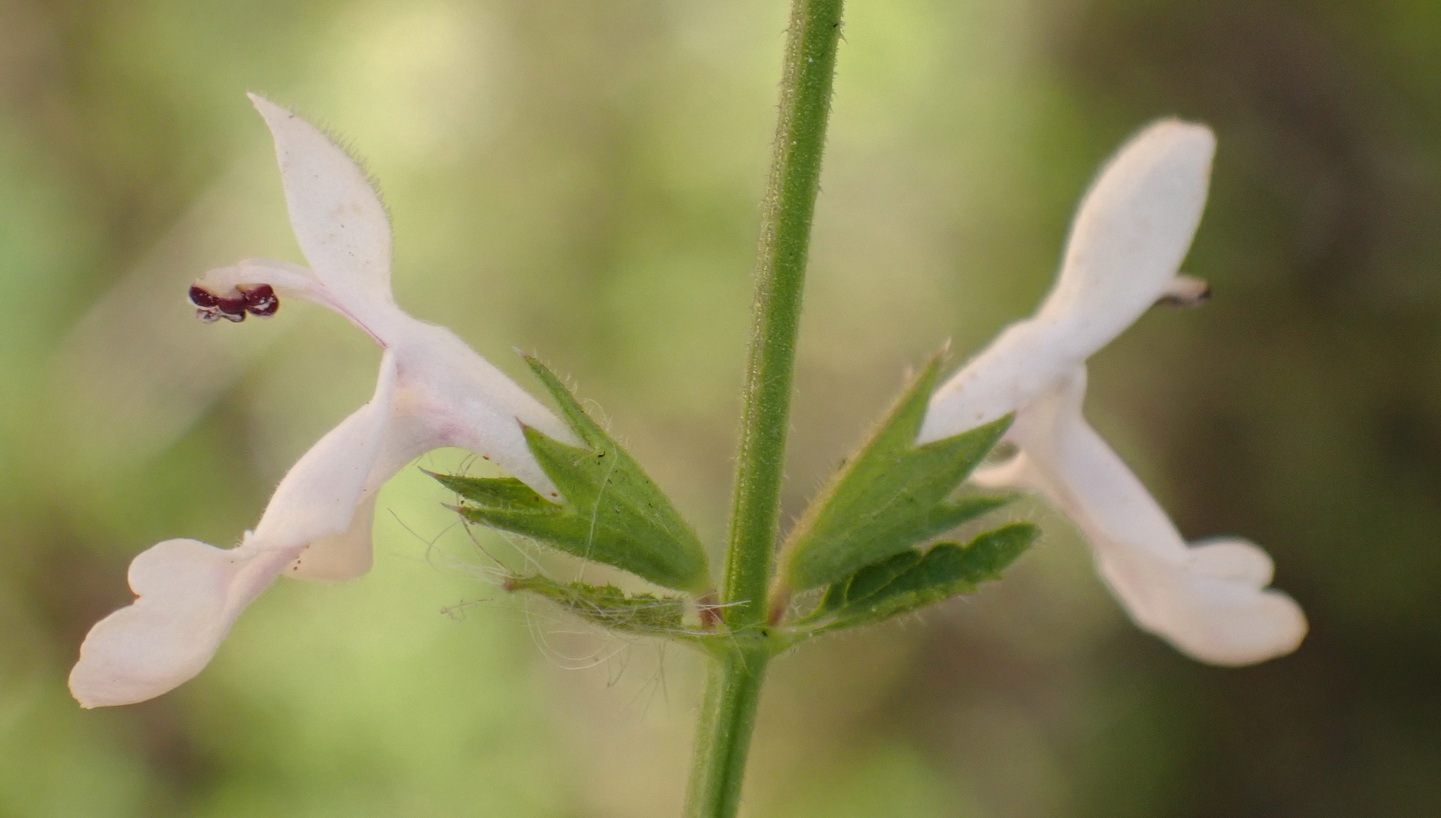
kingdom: Plantae
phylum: Tracheophyta
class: Magnoliopsida
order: Lamiales
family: Lamiaceae
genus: Stachys
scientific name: Stachys aethiopica
